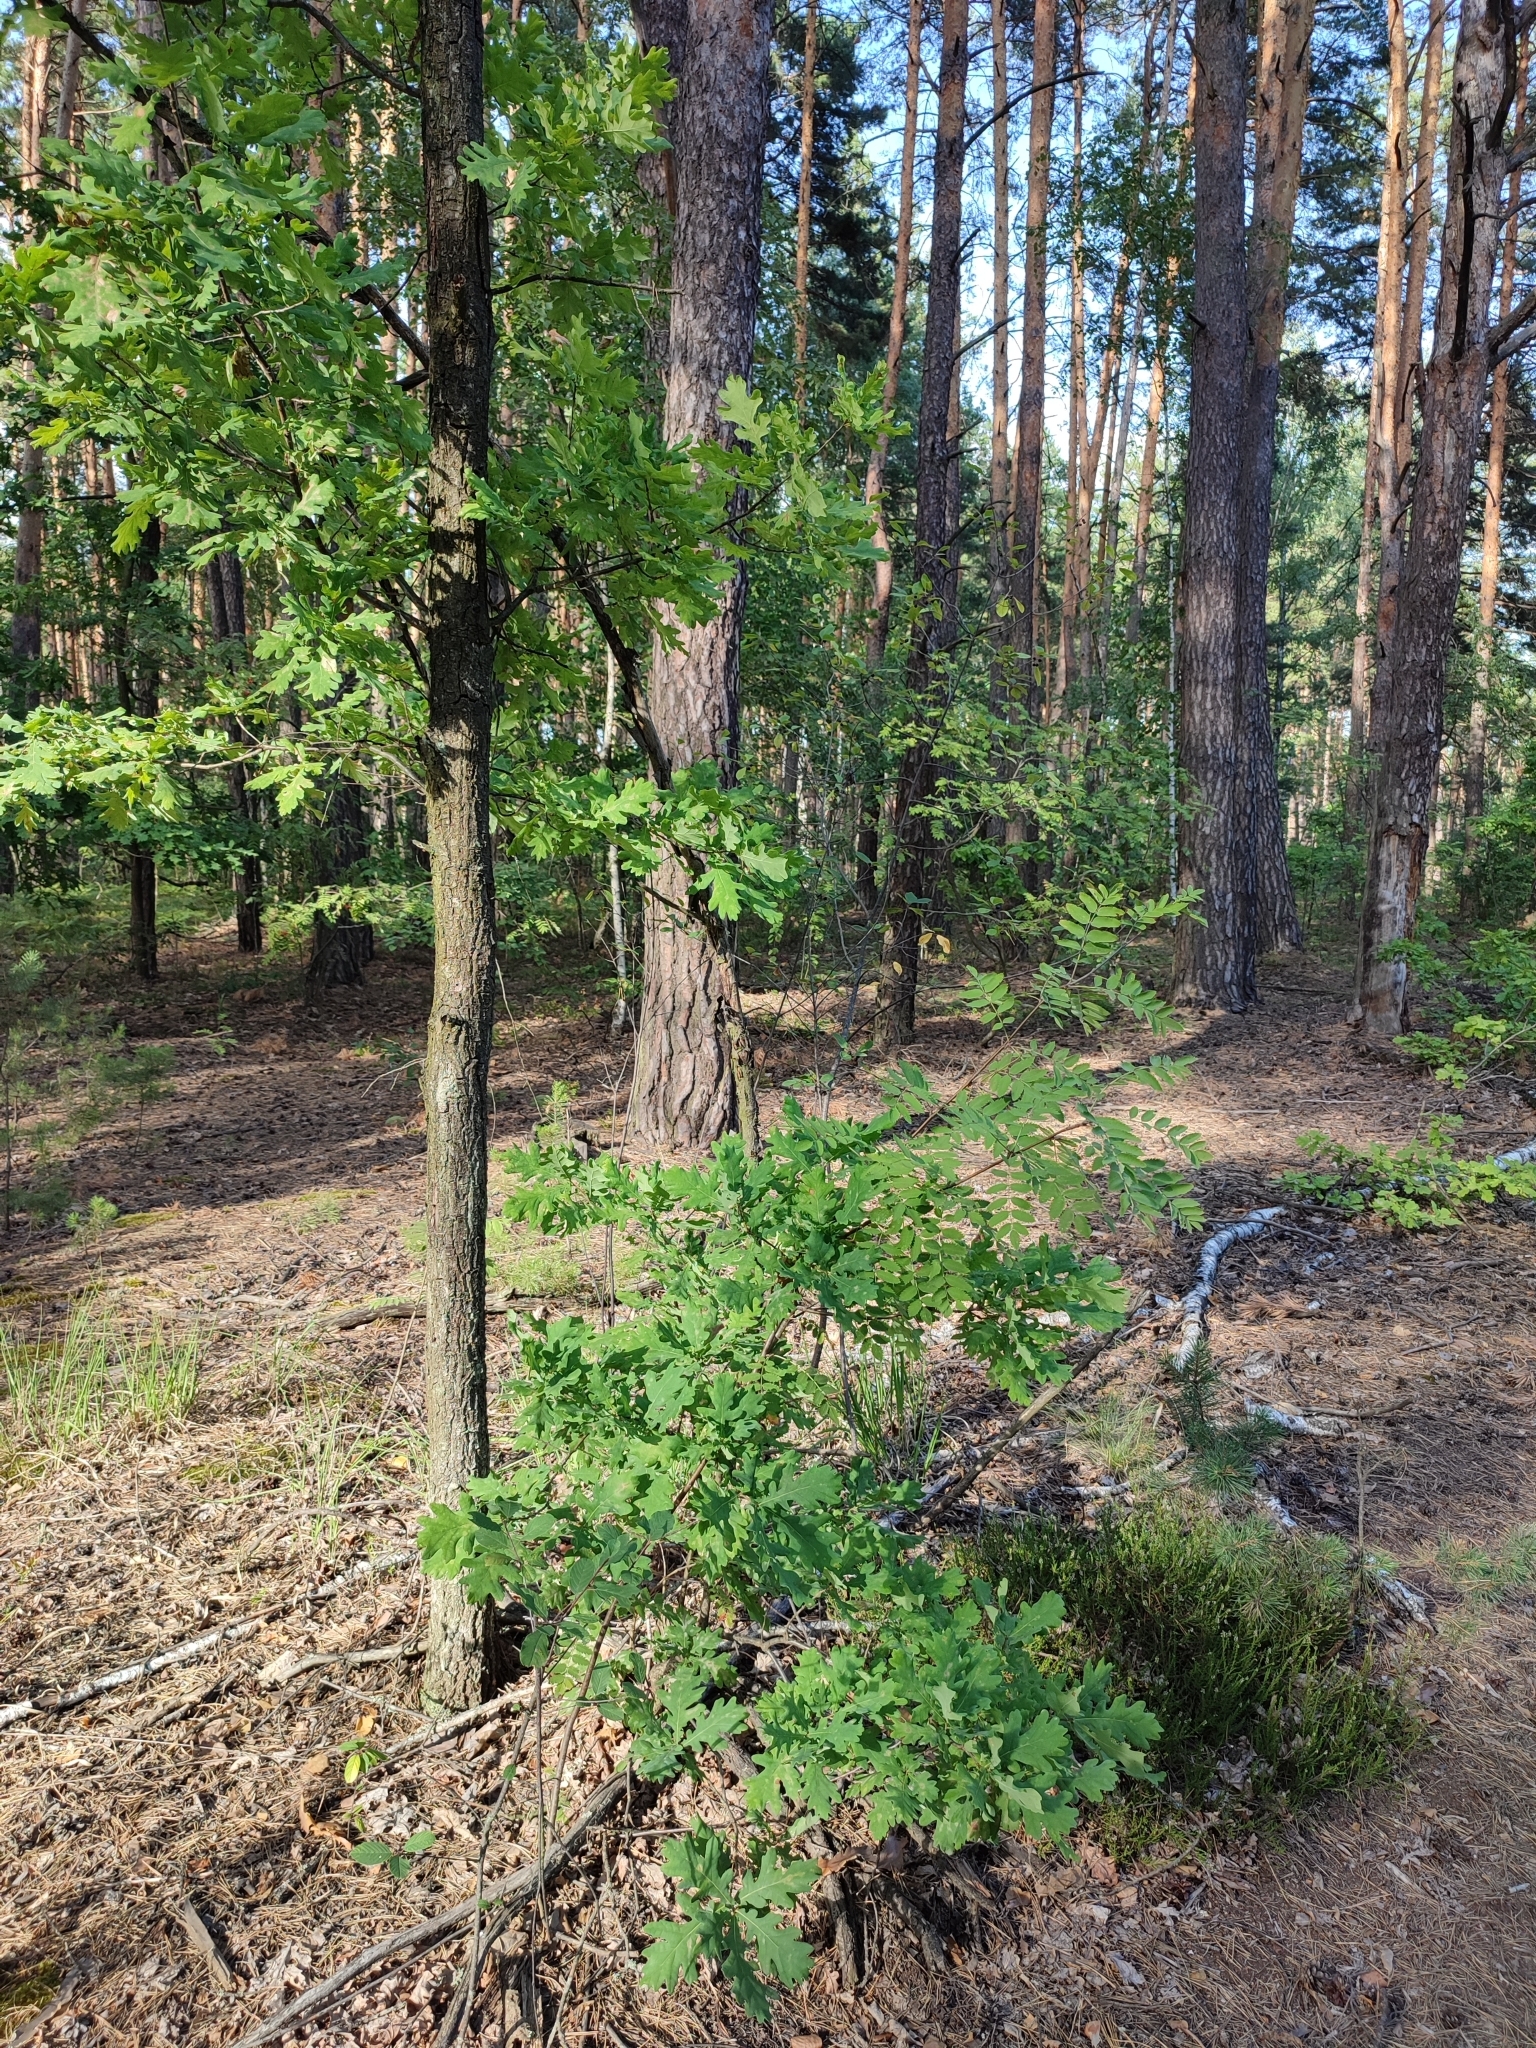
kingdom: Plantae
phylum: Tracheophyta
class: Magnoliopsida
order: Fagales
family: Fagaceae
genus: Quercus
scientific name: Quercus robur
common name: Pedunculate oak
